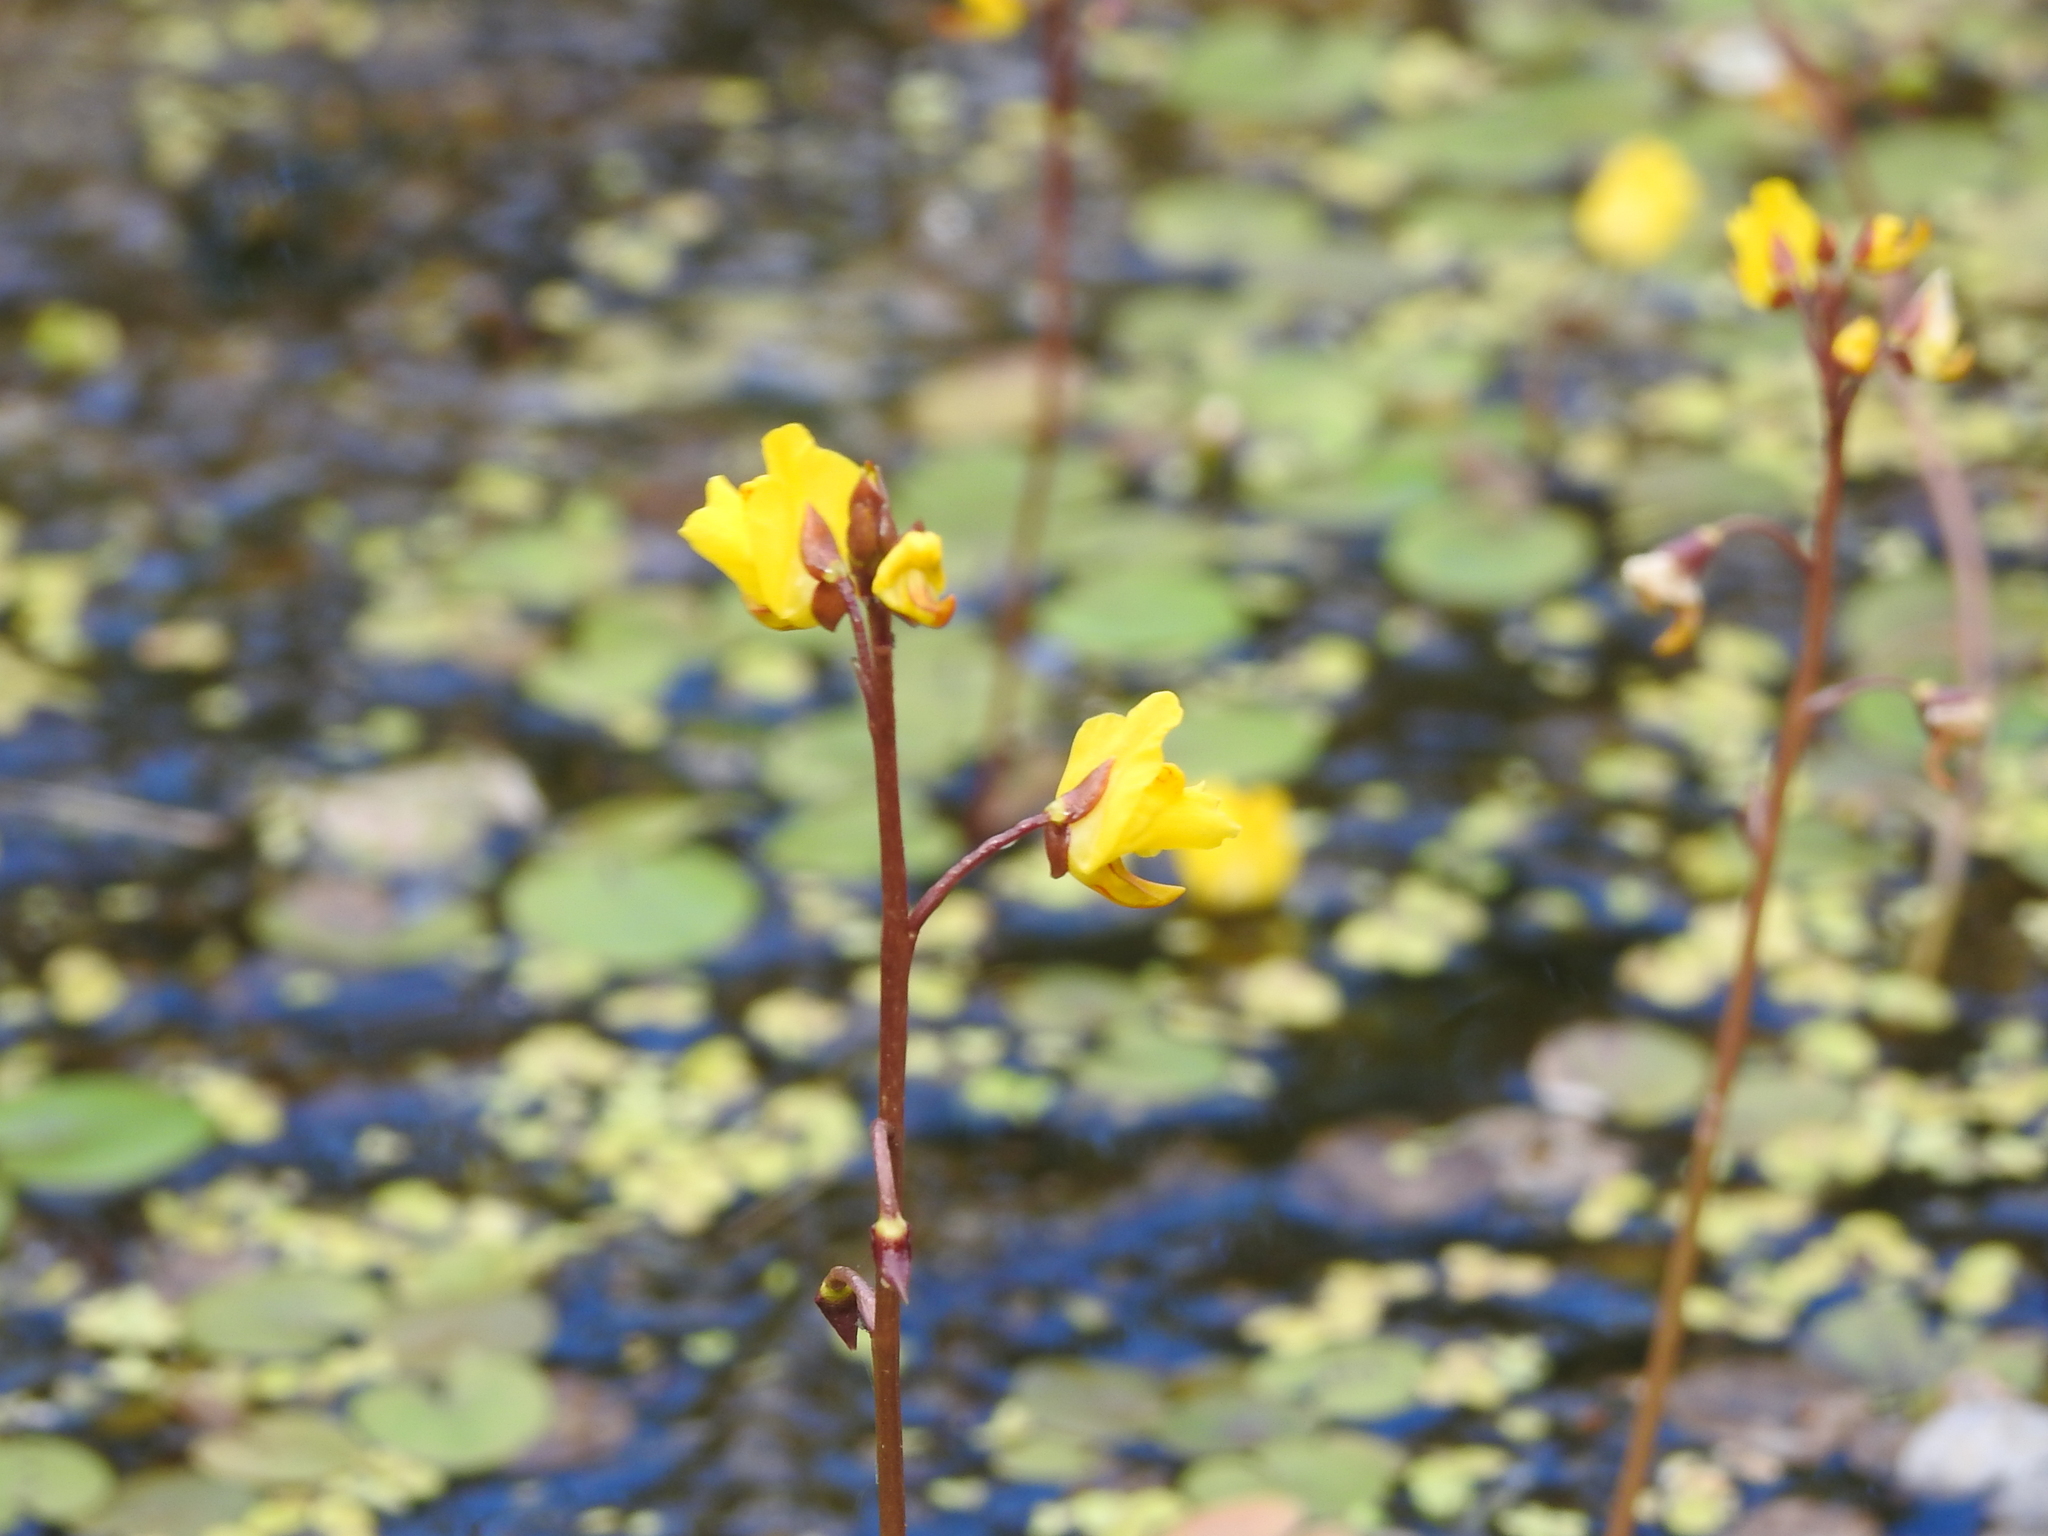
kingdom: Plantae
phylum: Tracheophyta
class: Magnoliopsida
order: Lamiales
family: Lentibulariaceae
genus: Utricularia
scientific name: Utricularia vulgaris
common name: Greater bladderwort
